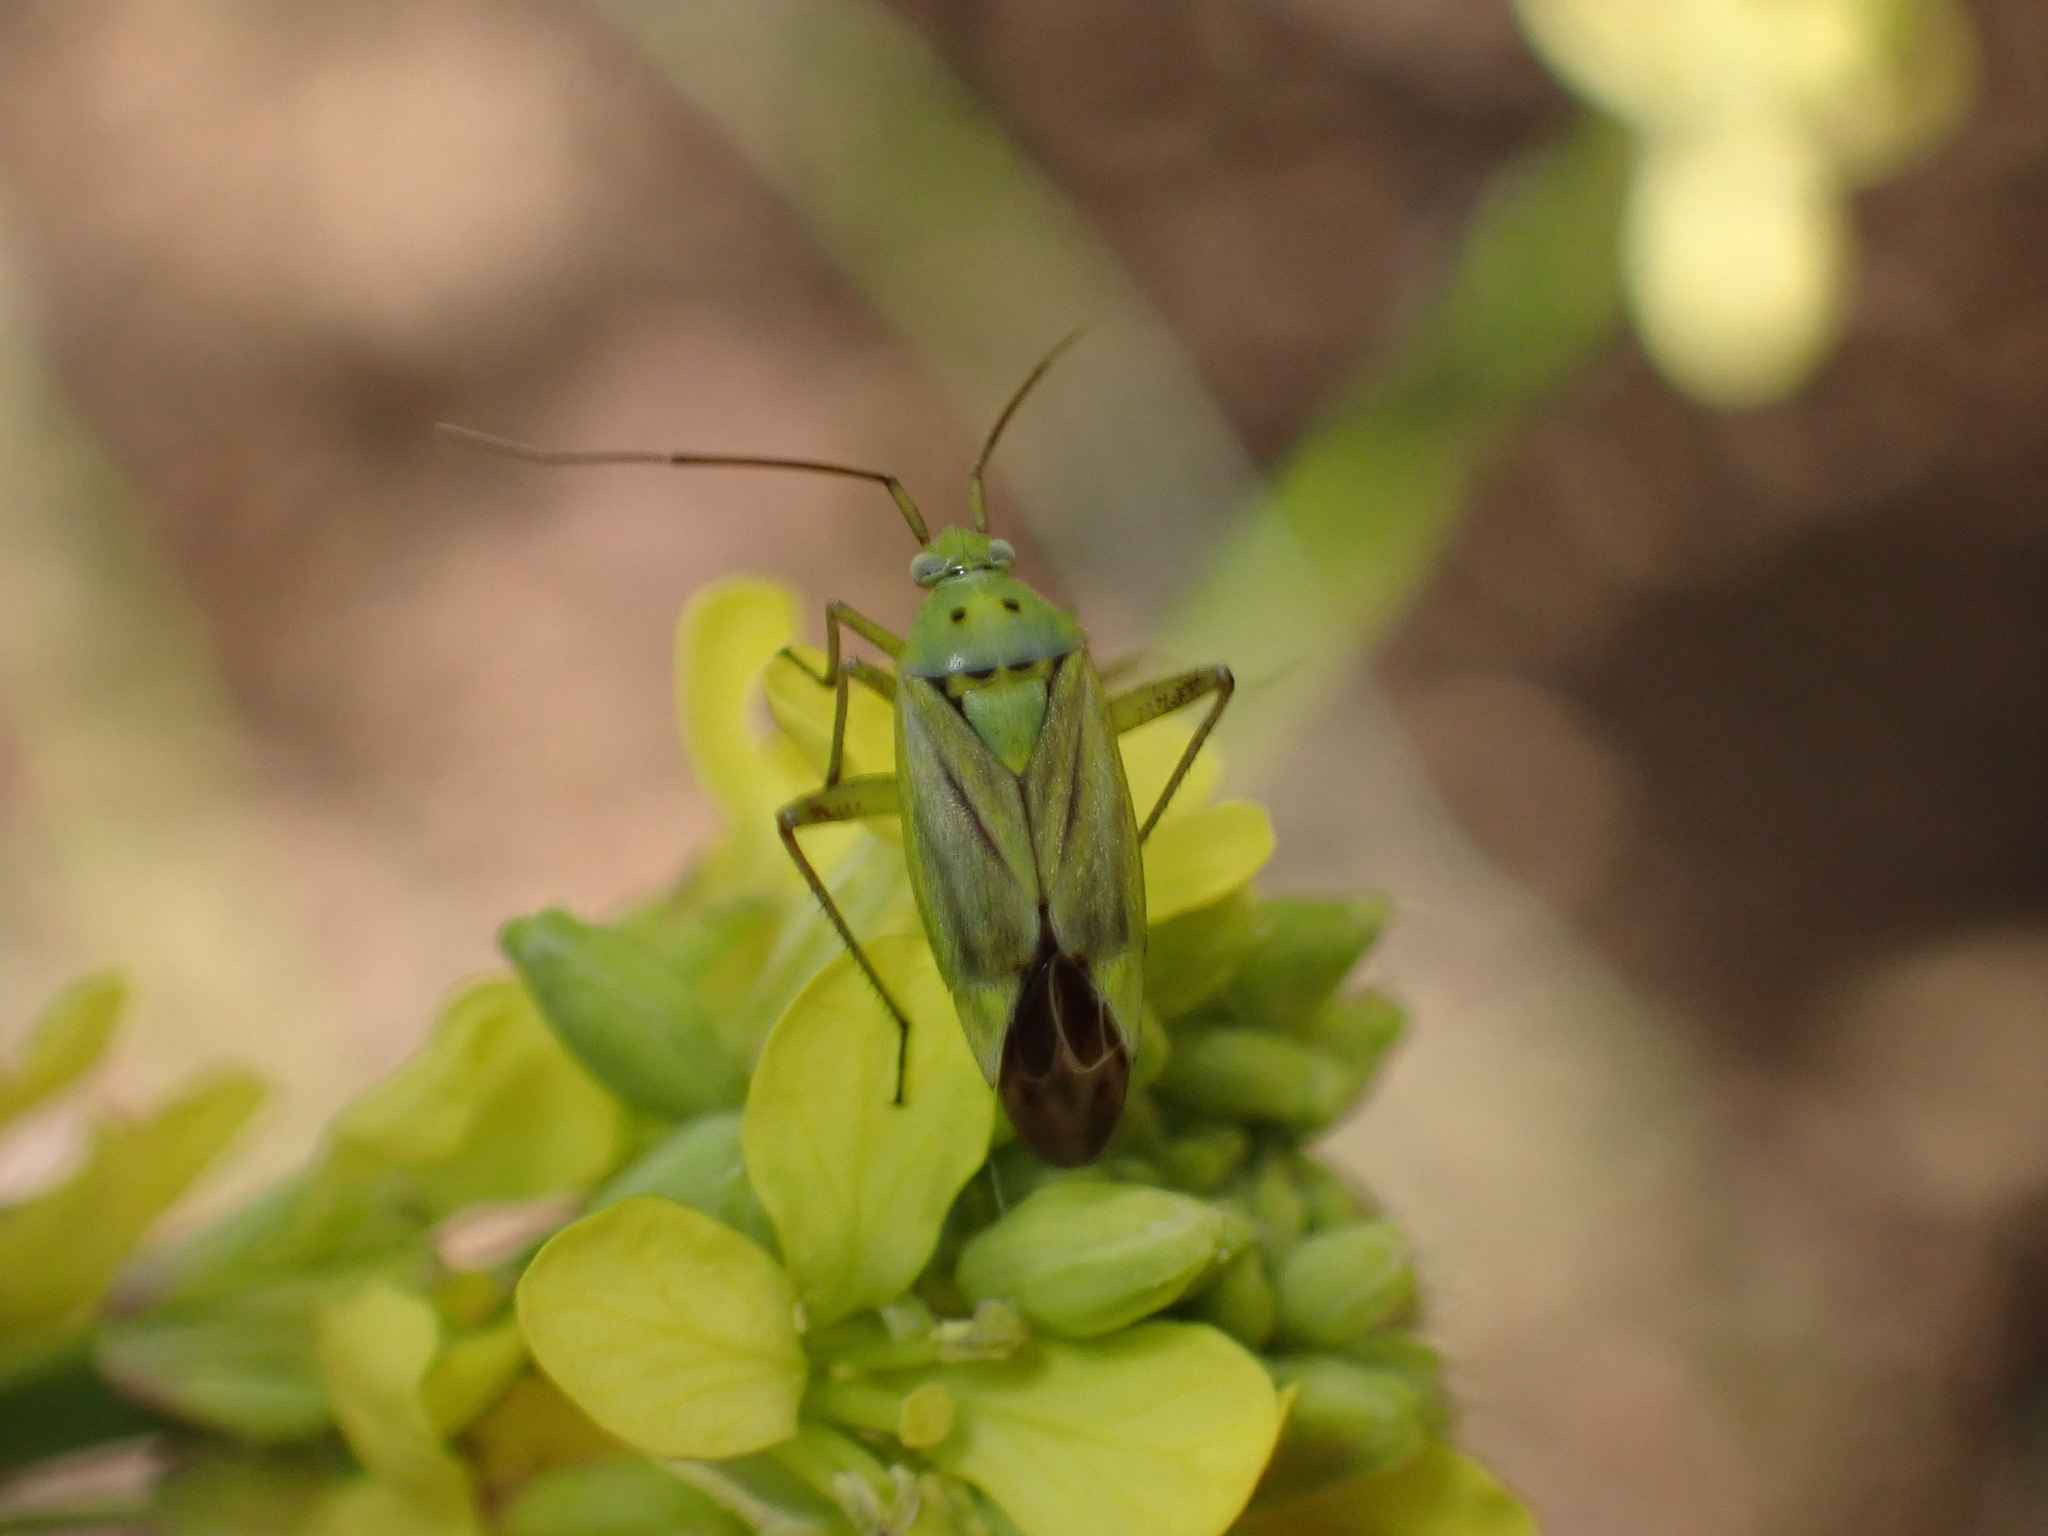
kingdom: Animalia
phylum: Arthropoda
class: Insecta
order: Hemiptera
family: Miridae
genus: Closterotomus
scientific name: Closterotomus norvegicus
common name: Plant bug
